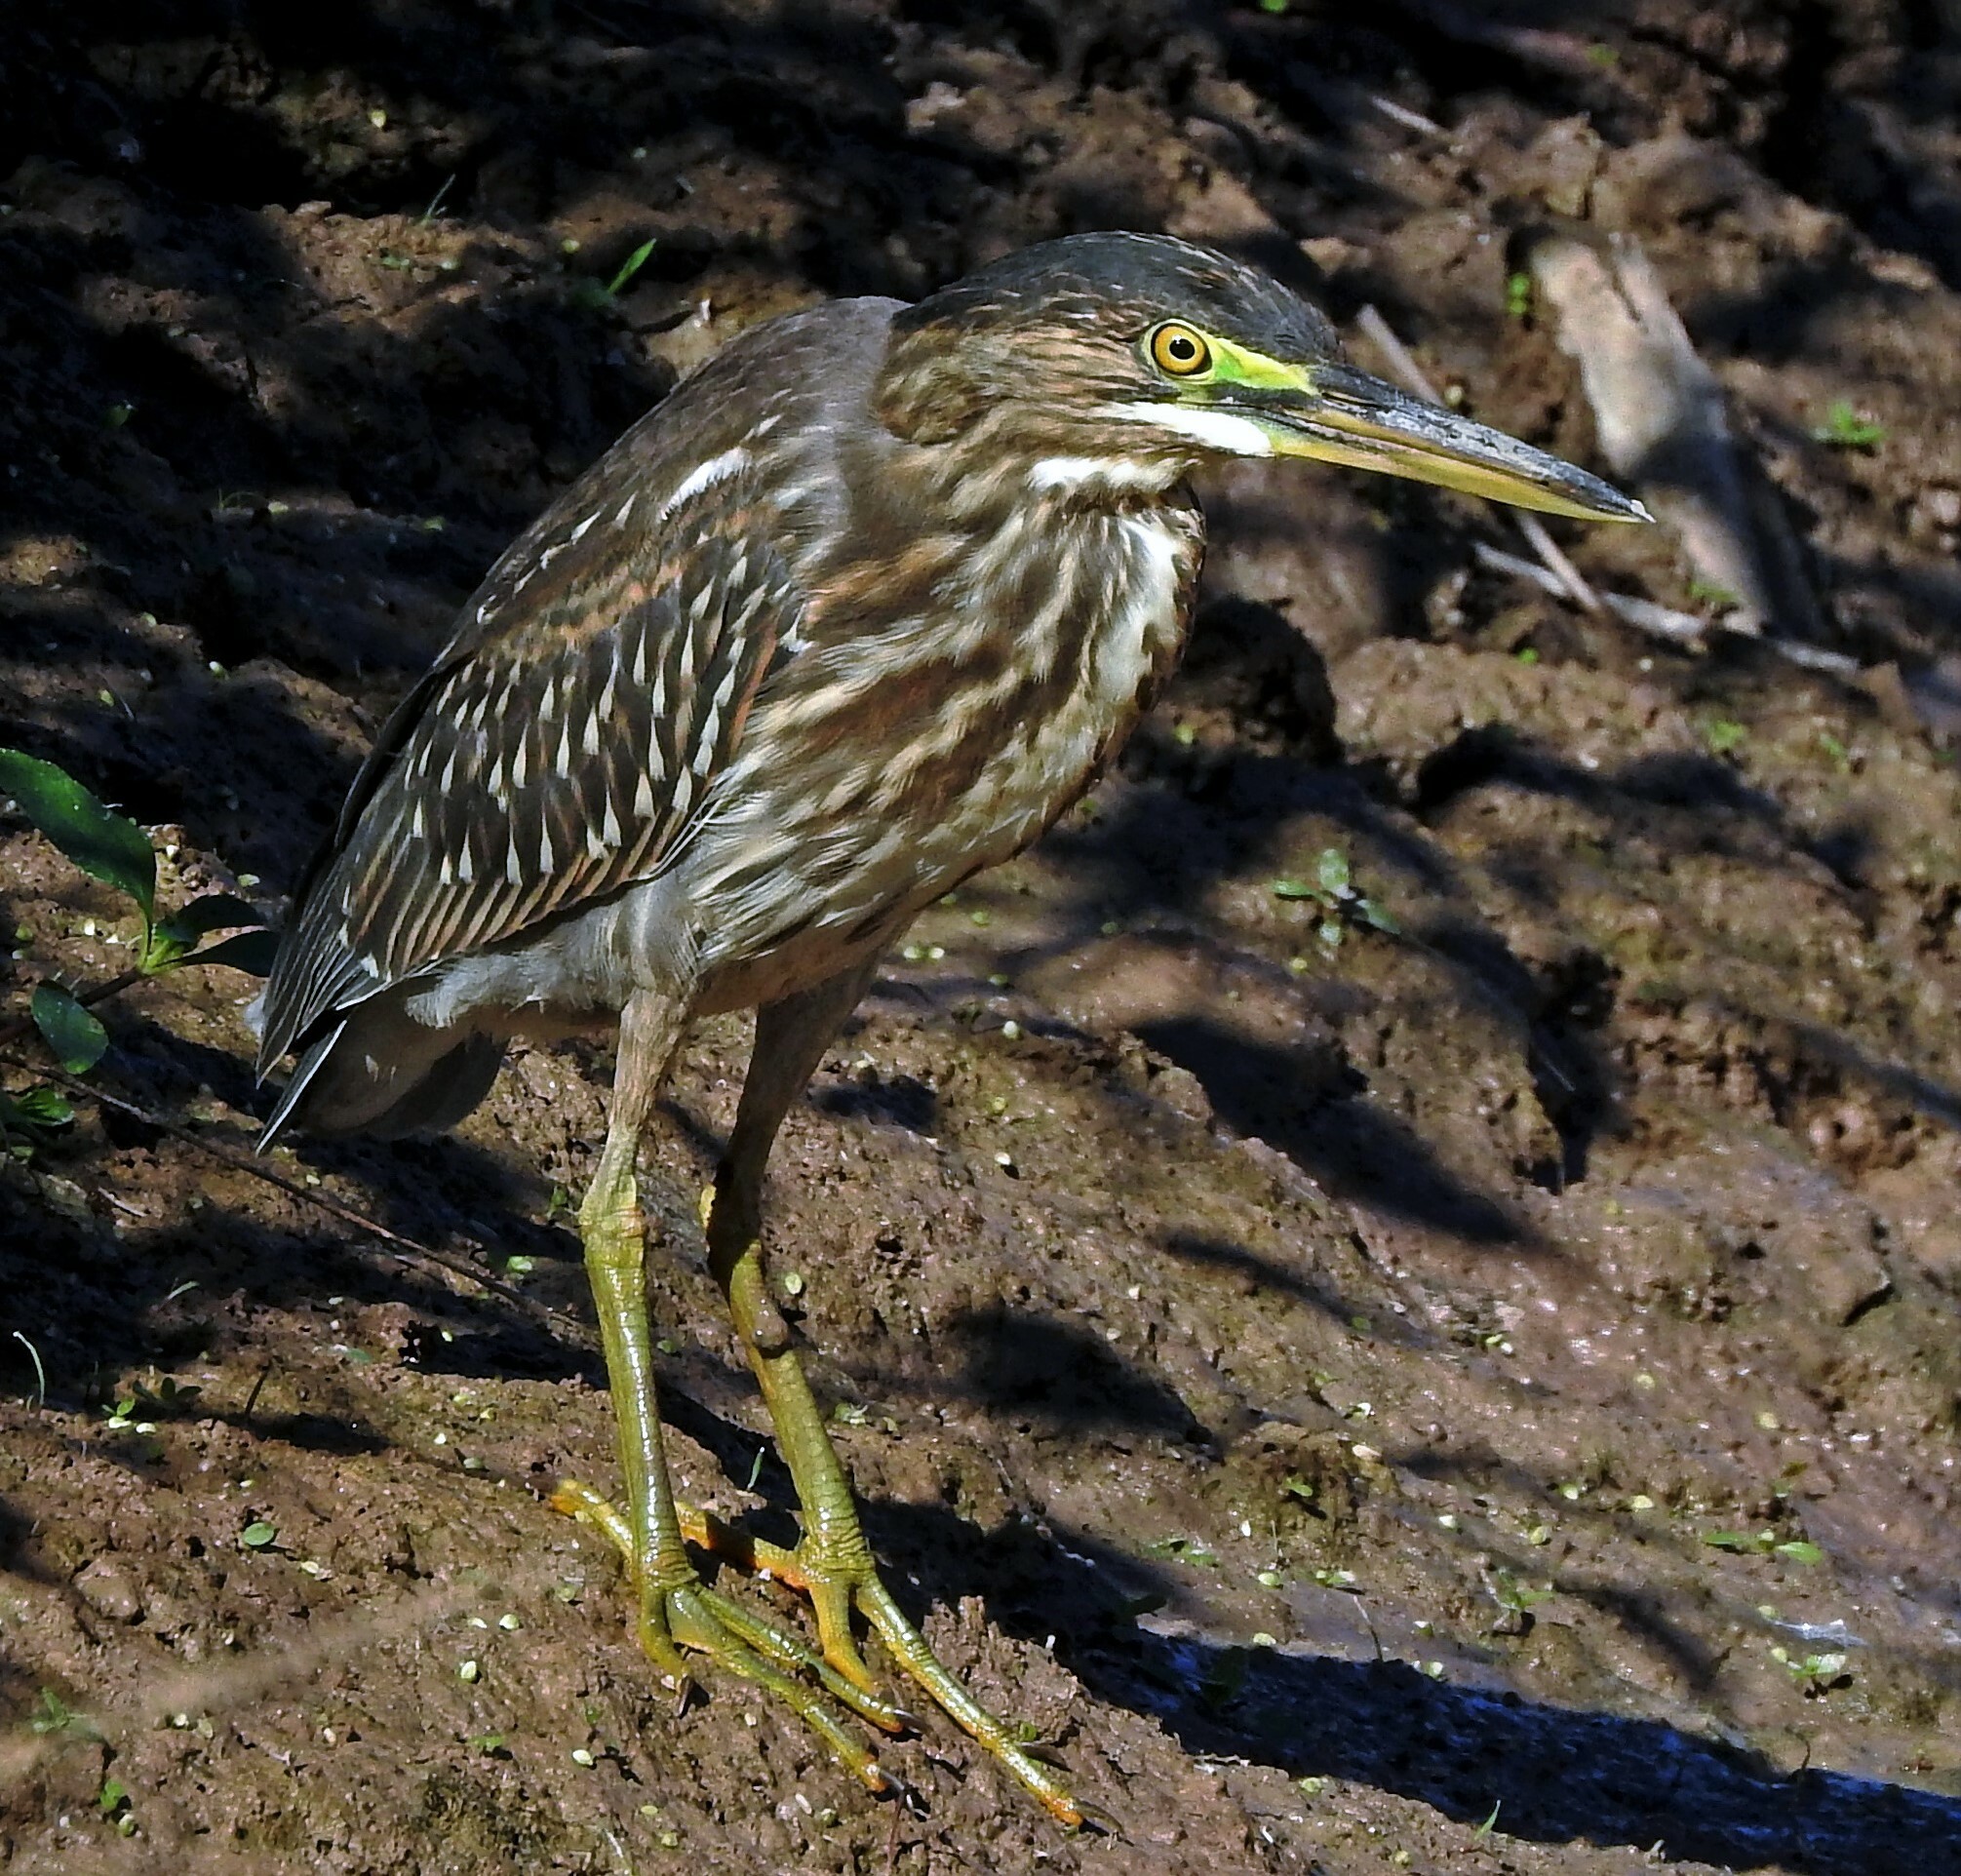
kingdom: Animalia
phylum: Chordata
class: Aves
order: Pelecaniformes
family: Ardeidae
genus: Butorides
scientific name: Butorides striata
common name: Striated heron
